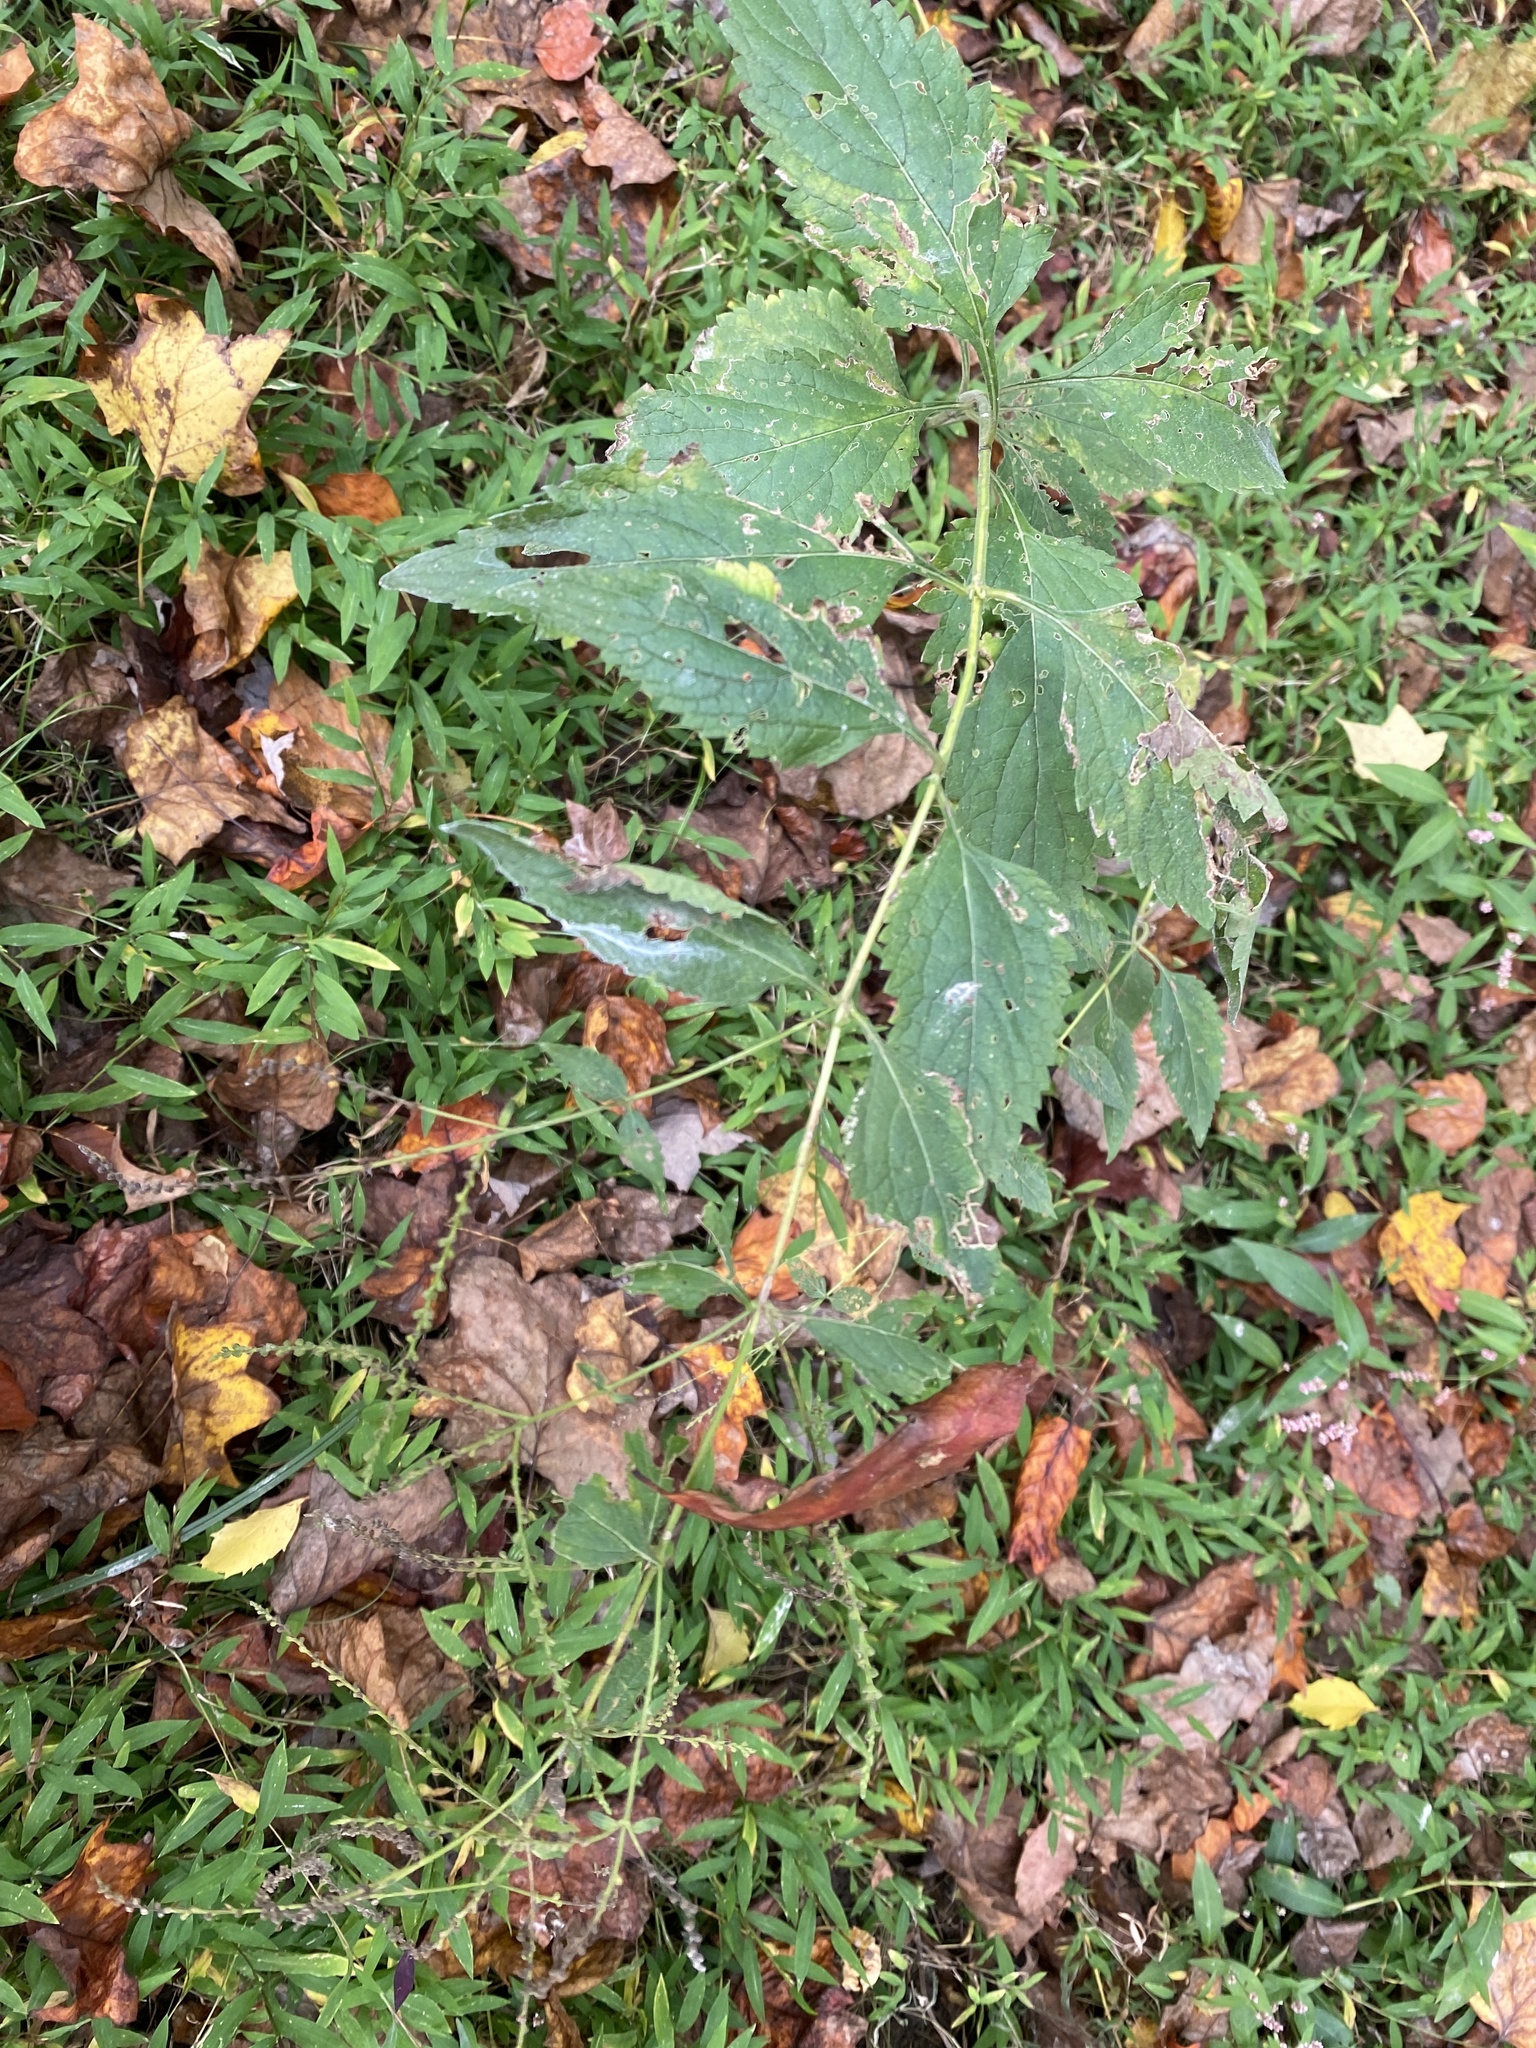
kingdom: Plantae
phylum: Tracheophyta
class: Magnoliopsida
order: Caryophyllales
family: Polygonaceae
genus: Persicaria
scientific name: Persicaria virginiana
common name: Jumpseed
